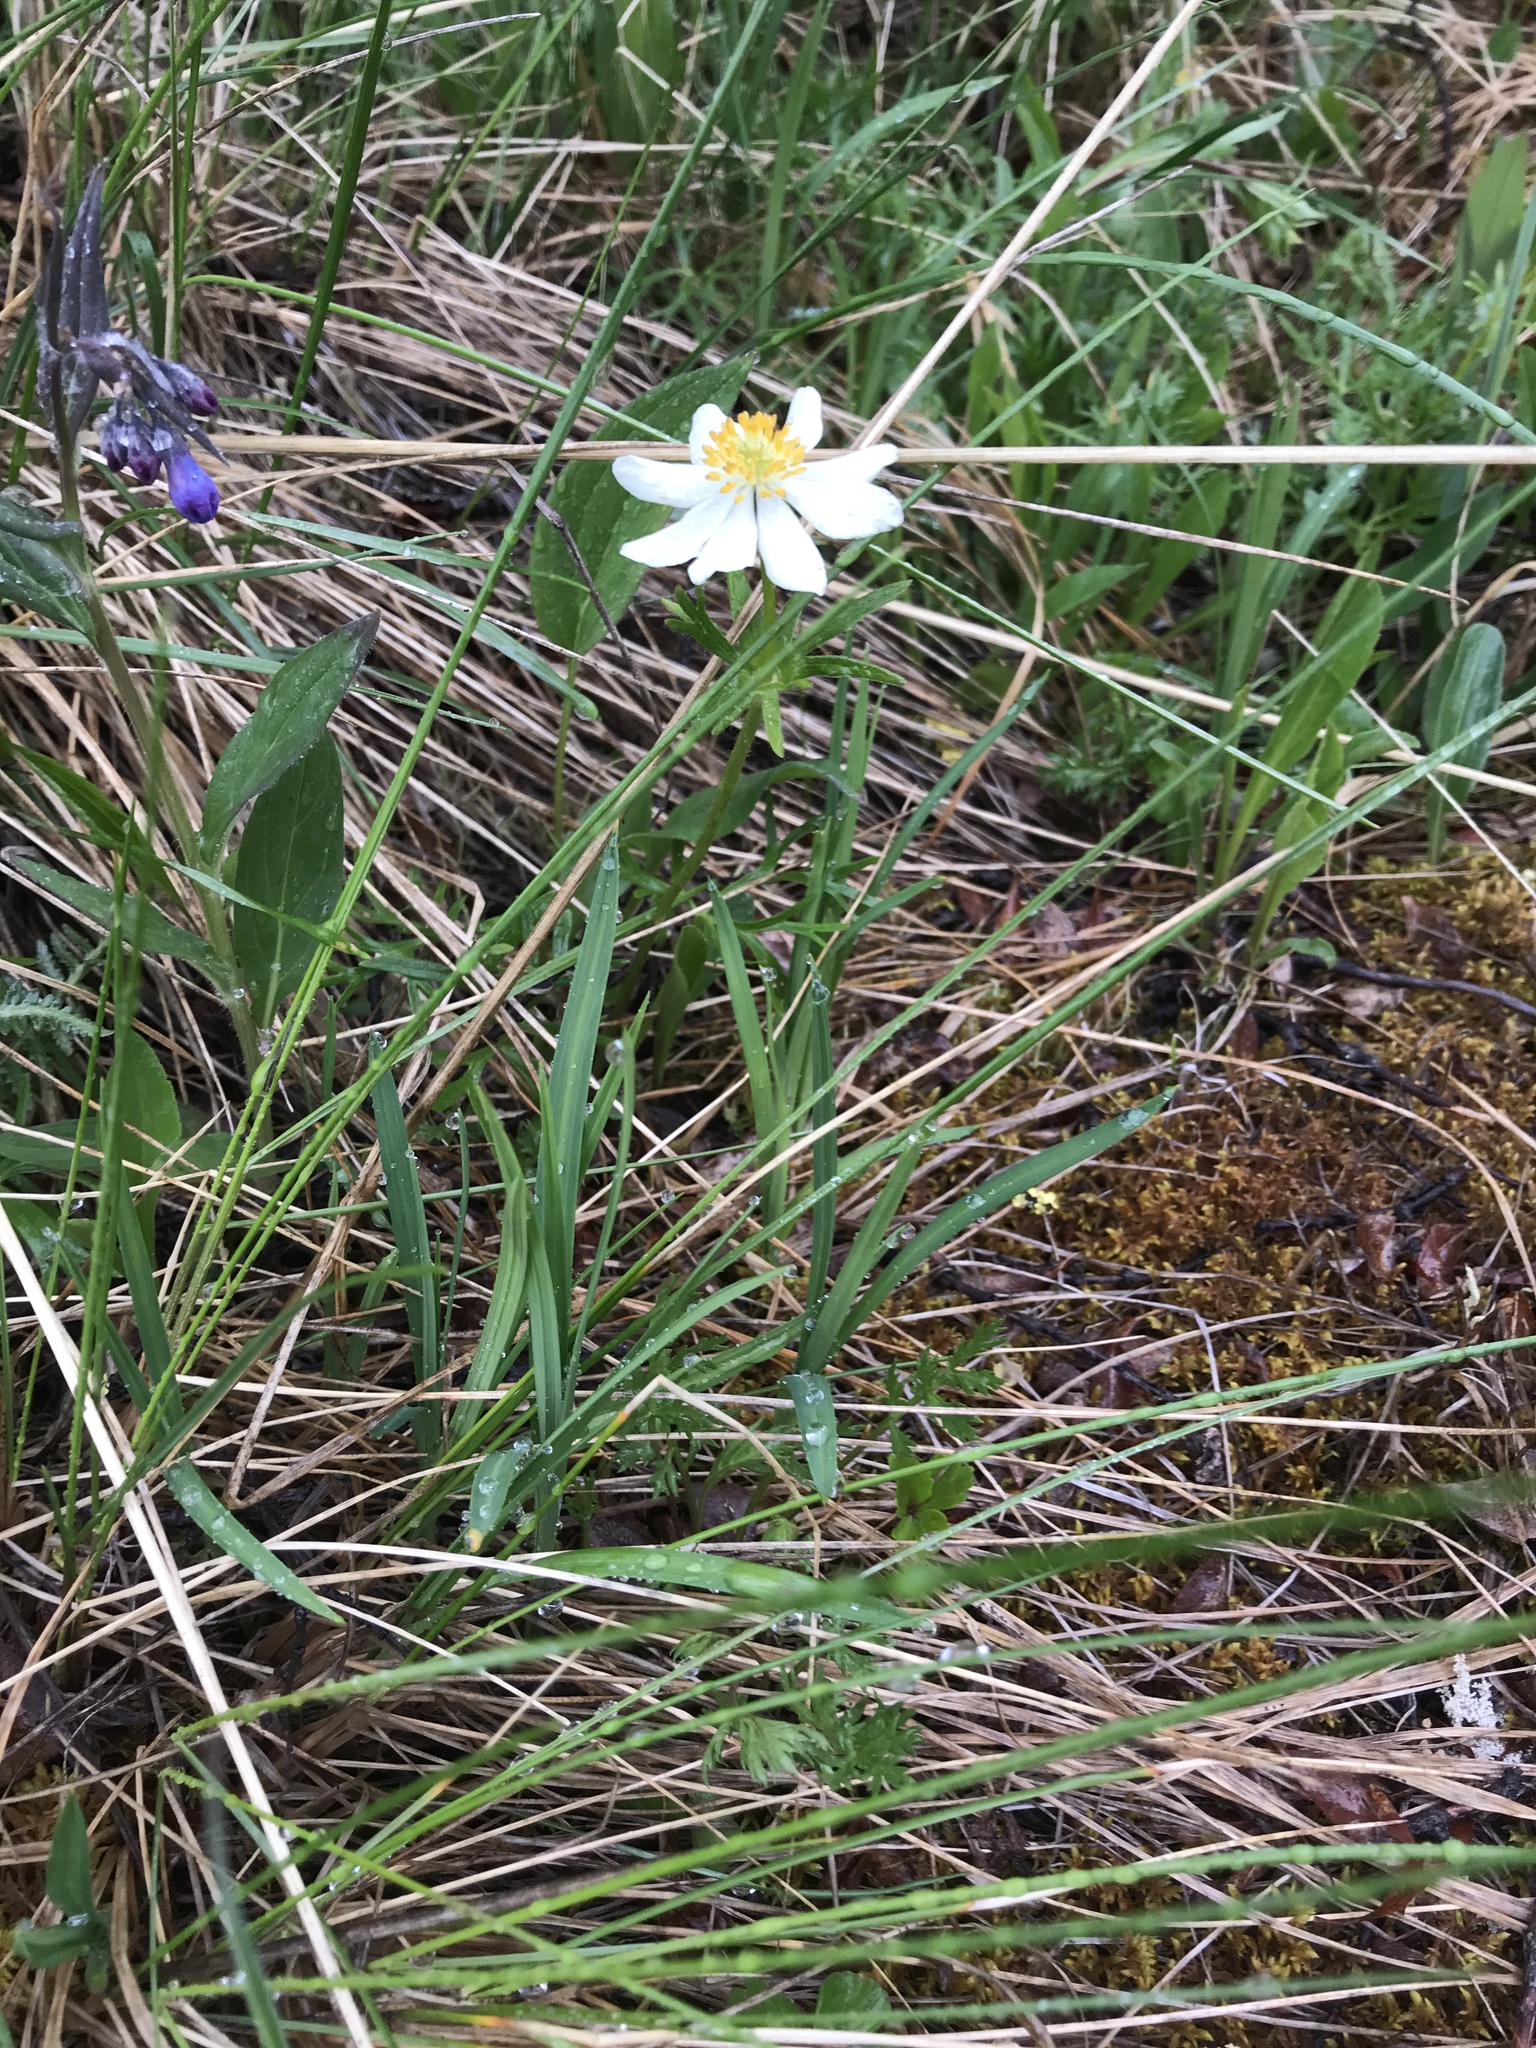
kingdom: Plantae
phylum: Tracheophyta
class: Magnoliopsida
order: Ranunculales
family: Ranunculaceae
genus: Anemonastrum
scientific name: Anemonastrum narcissiflorum
